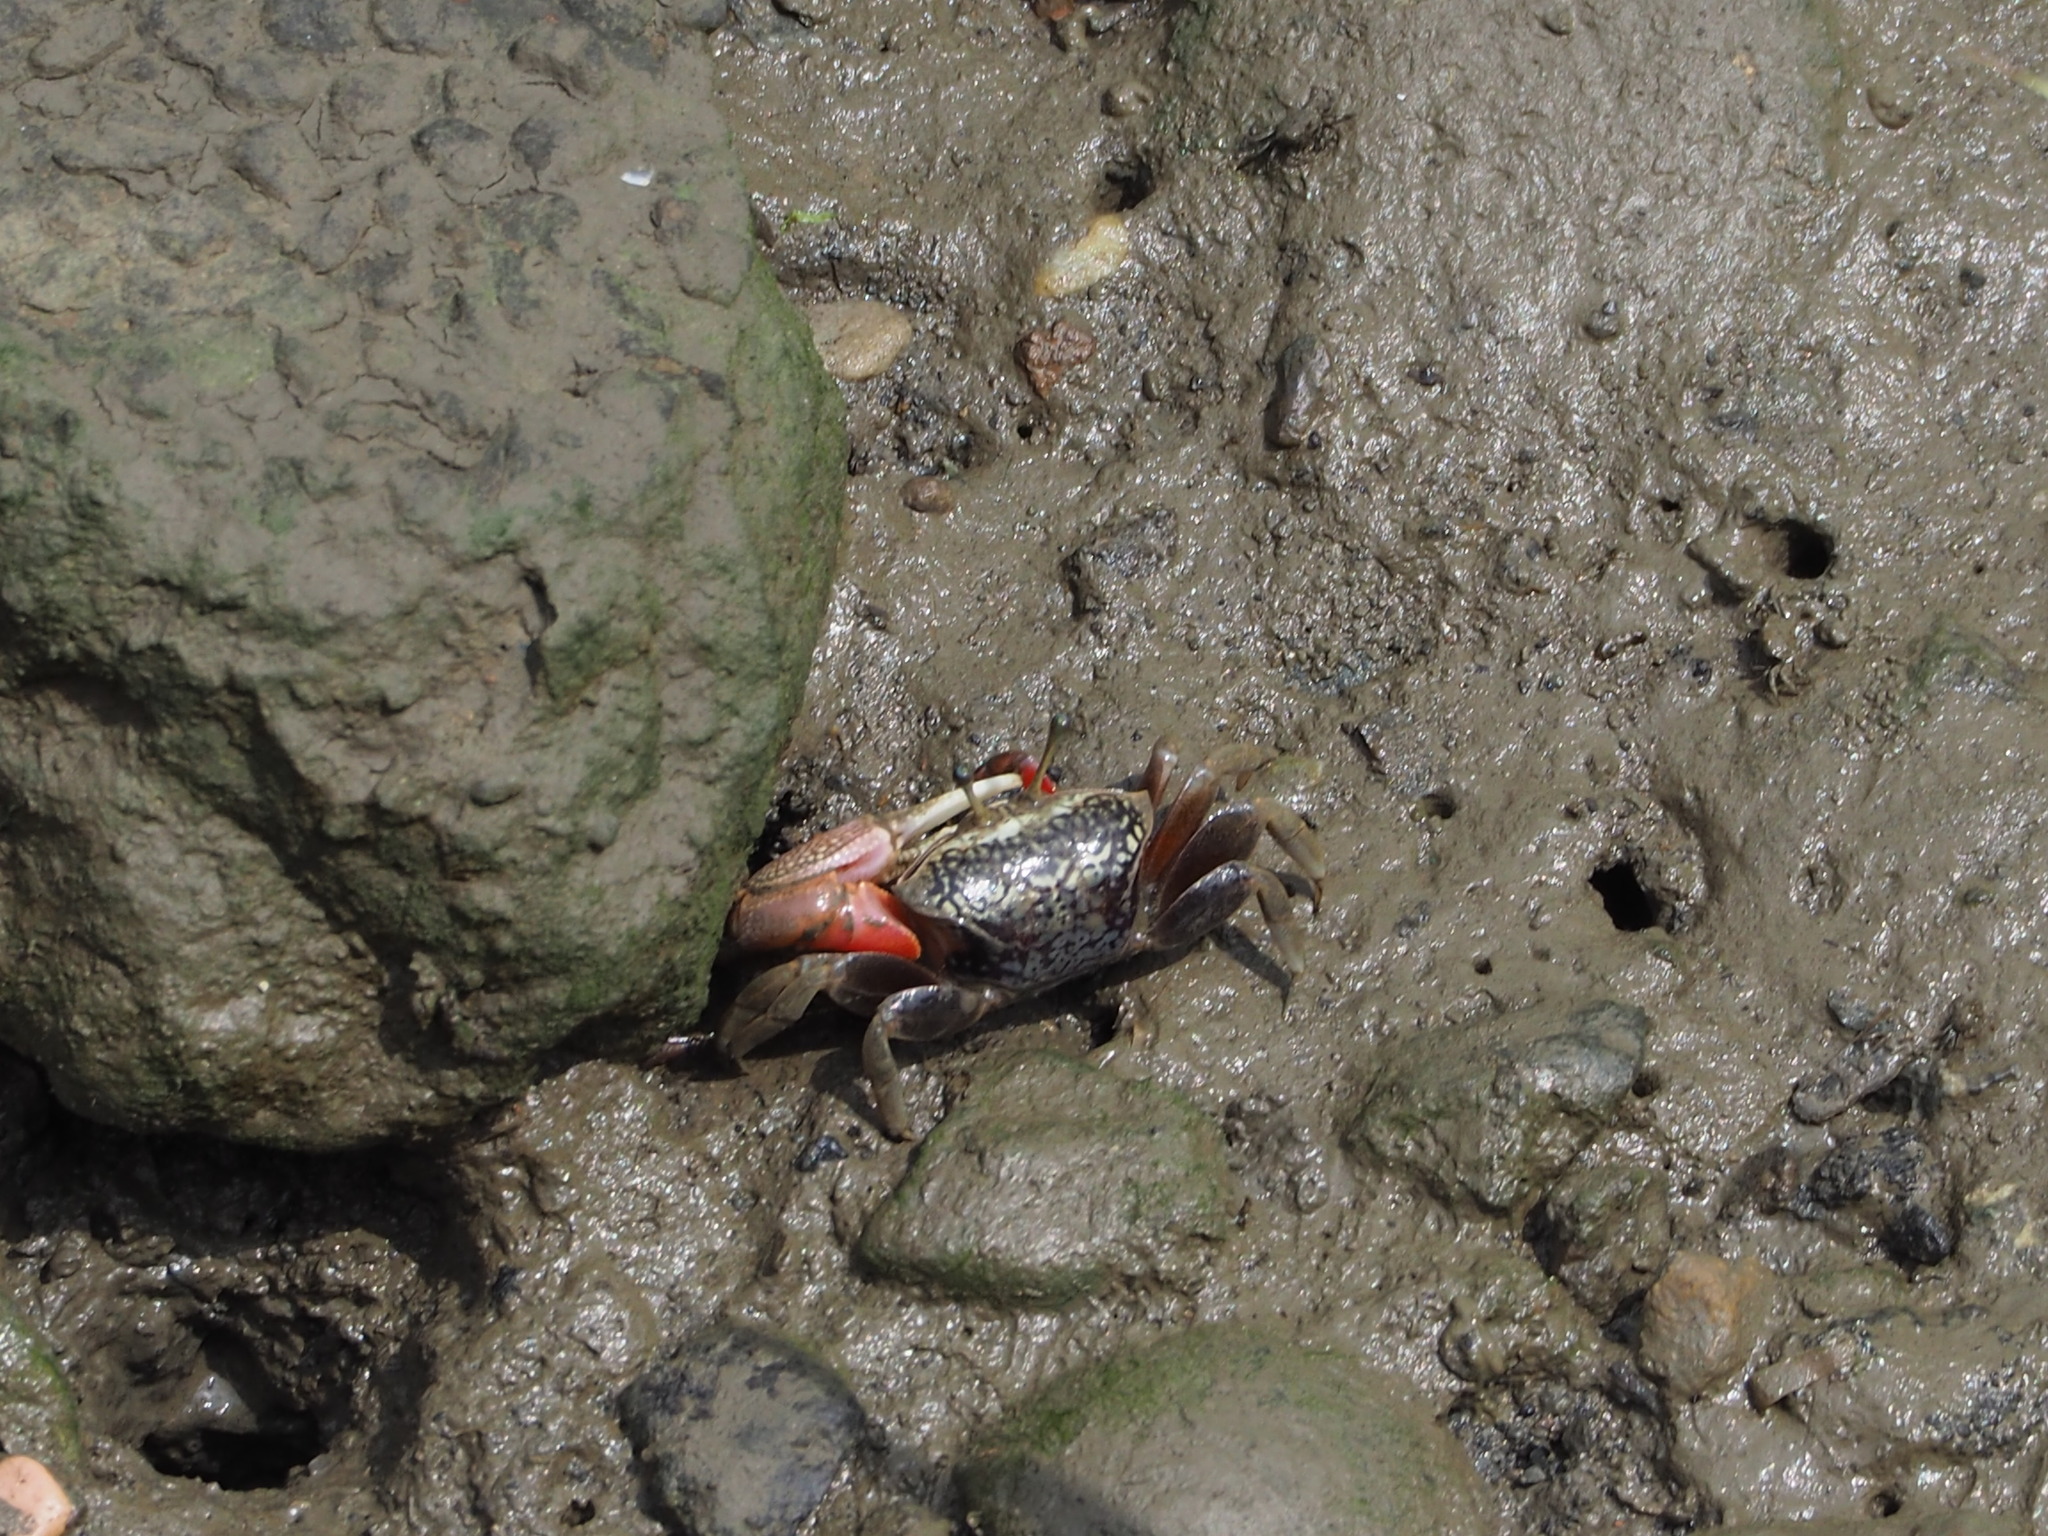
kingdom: Animalia
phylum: Arthropoda
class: Malacostraca
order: Decapoda
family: Ocypodidae
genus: Tubuca
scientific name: Tubuca arcuata
